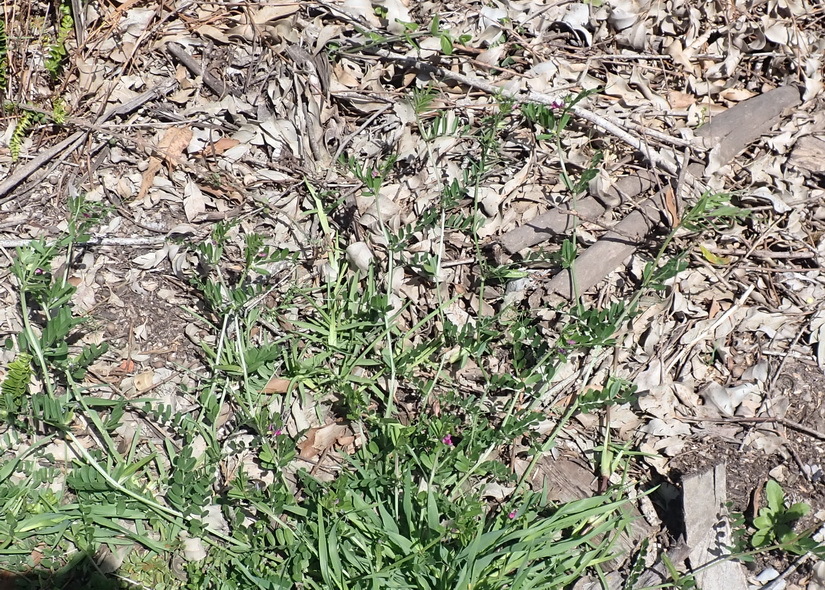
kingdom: Plantae
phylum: Tracheophyta
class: Magnoliopsida
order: Fabales
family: Fabaceae
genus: Vicia
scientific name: Vicia sativa
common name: Garden vetch
